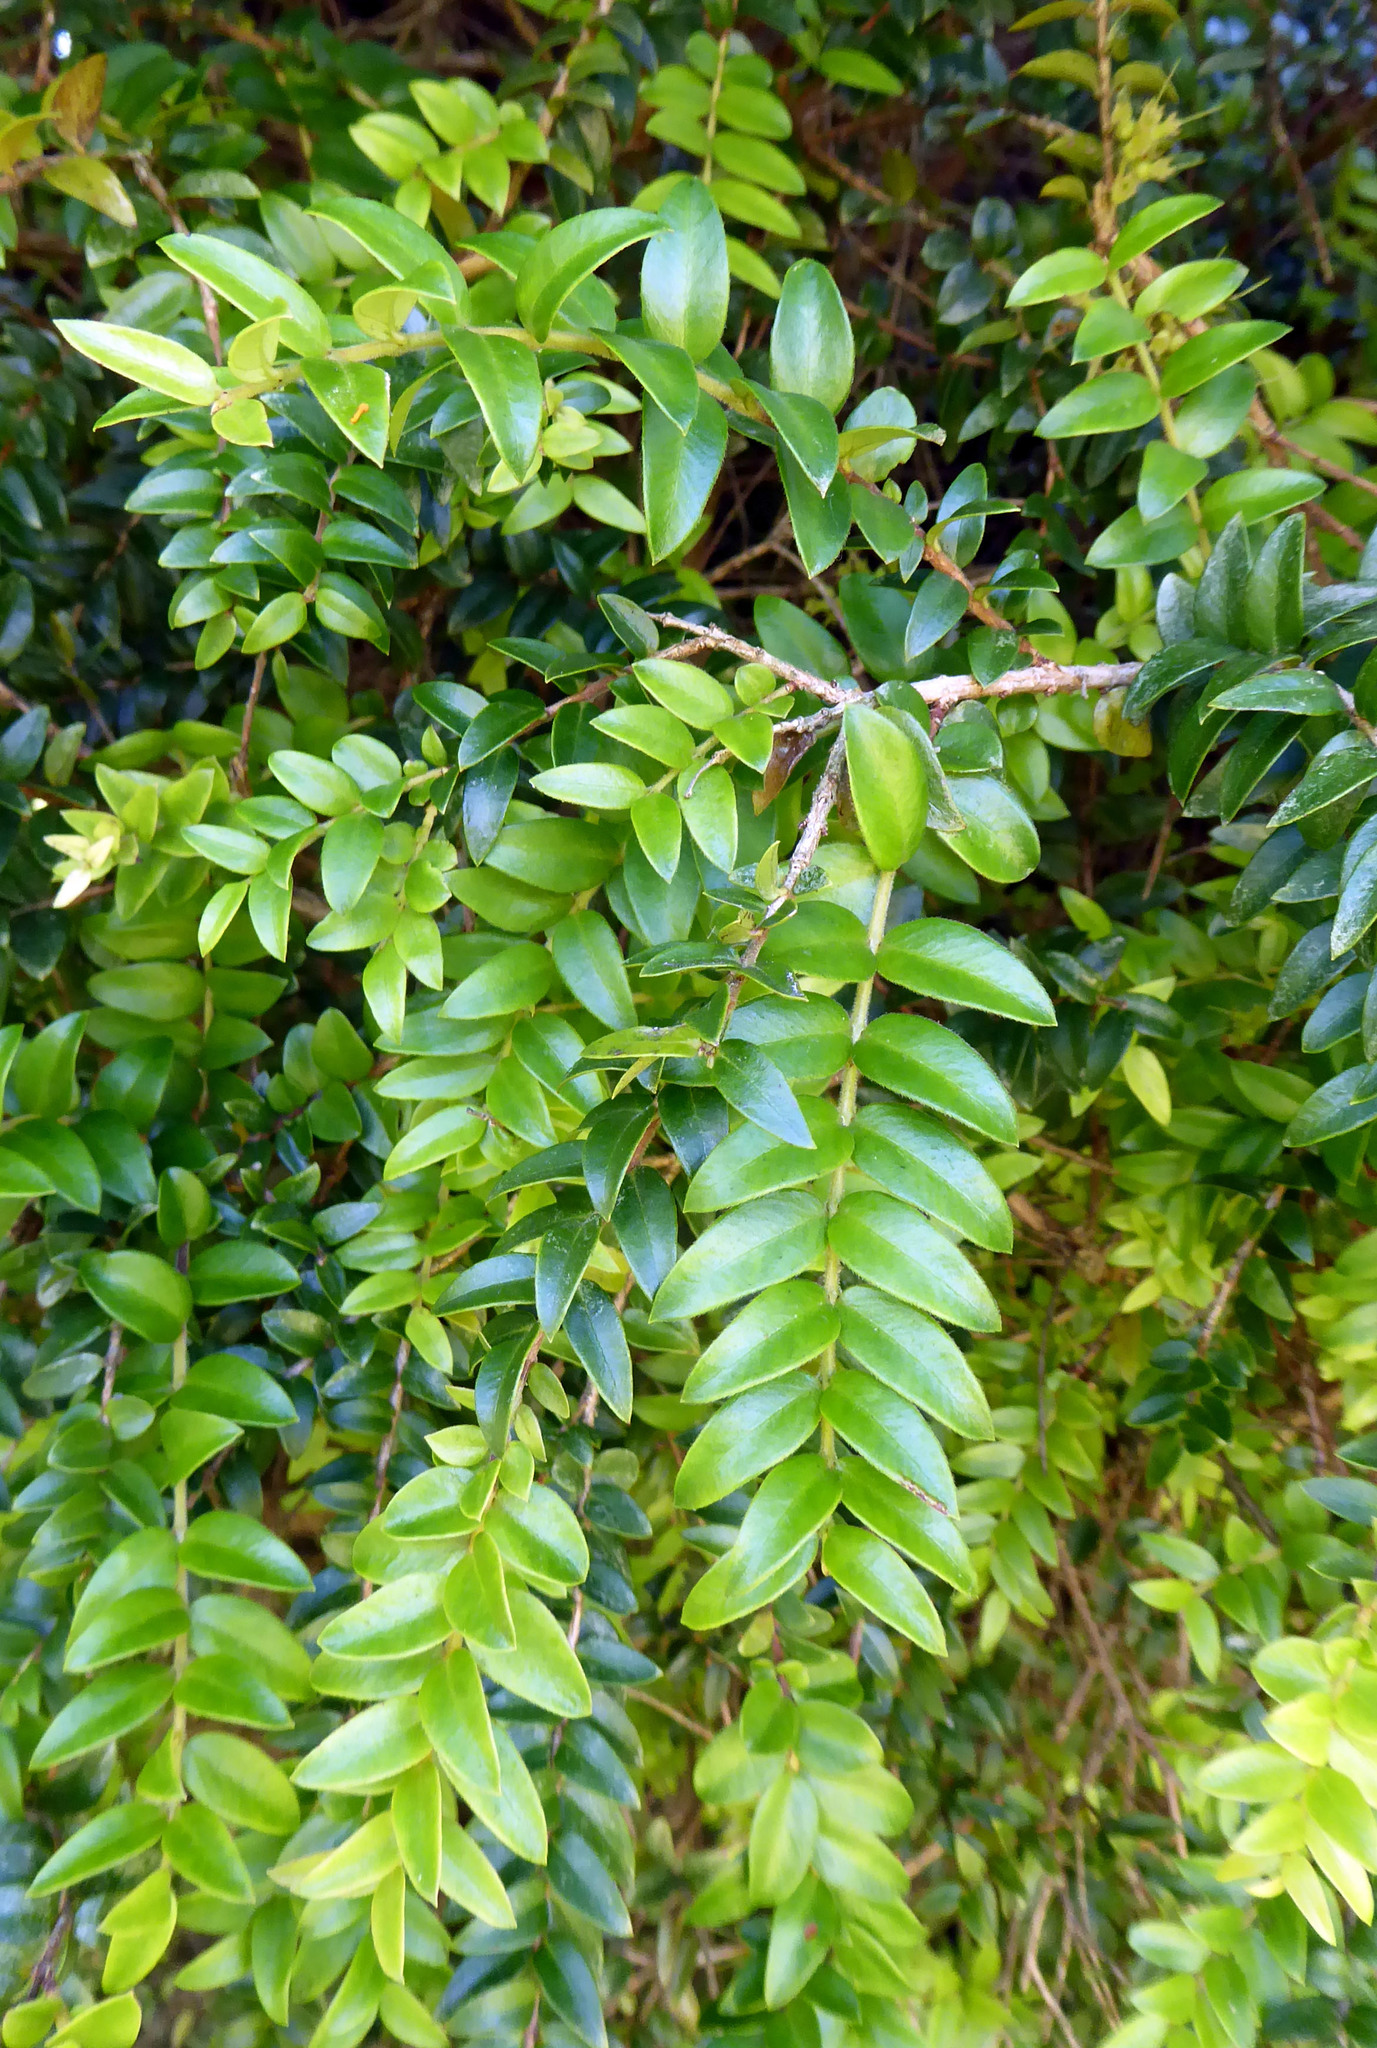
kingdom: Plantae
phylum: Tracheophyta
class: Magnoliopsida
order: Myrtales
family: Myrtaceae
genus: Metrosideros
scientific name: Metrosideros diffusa
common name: Small ratavine
